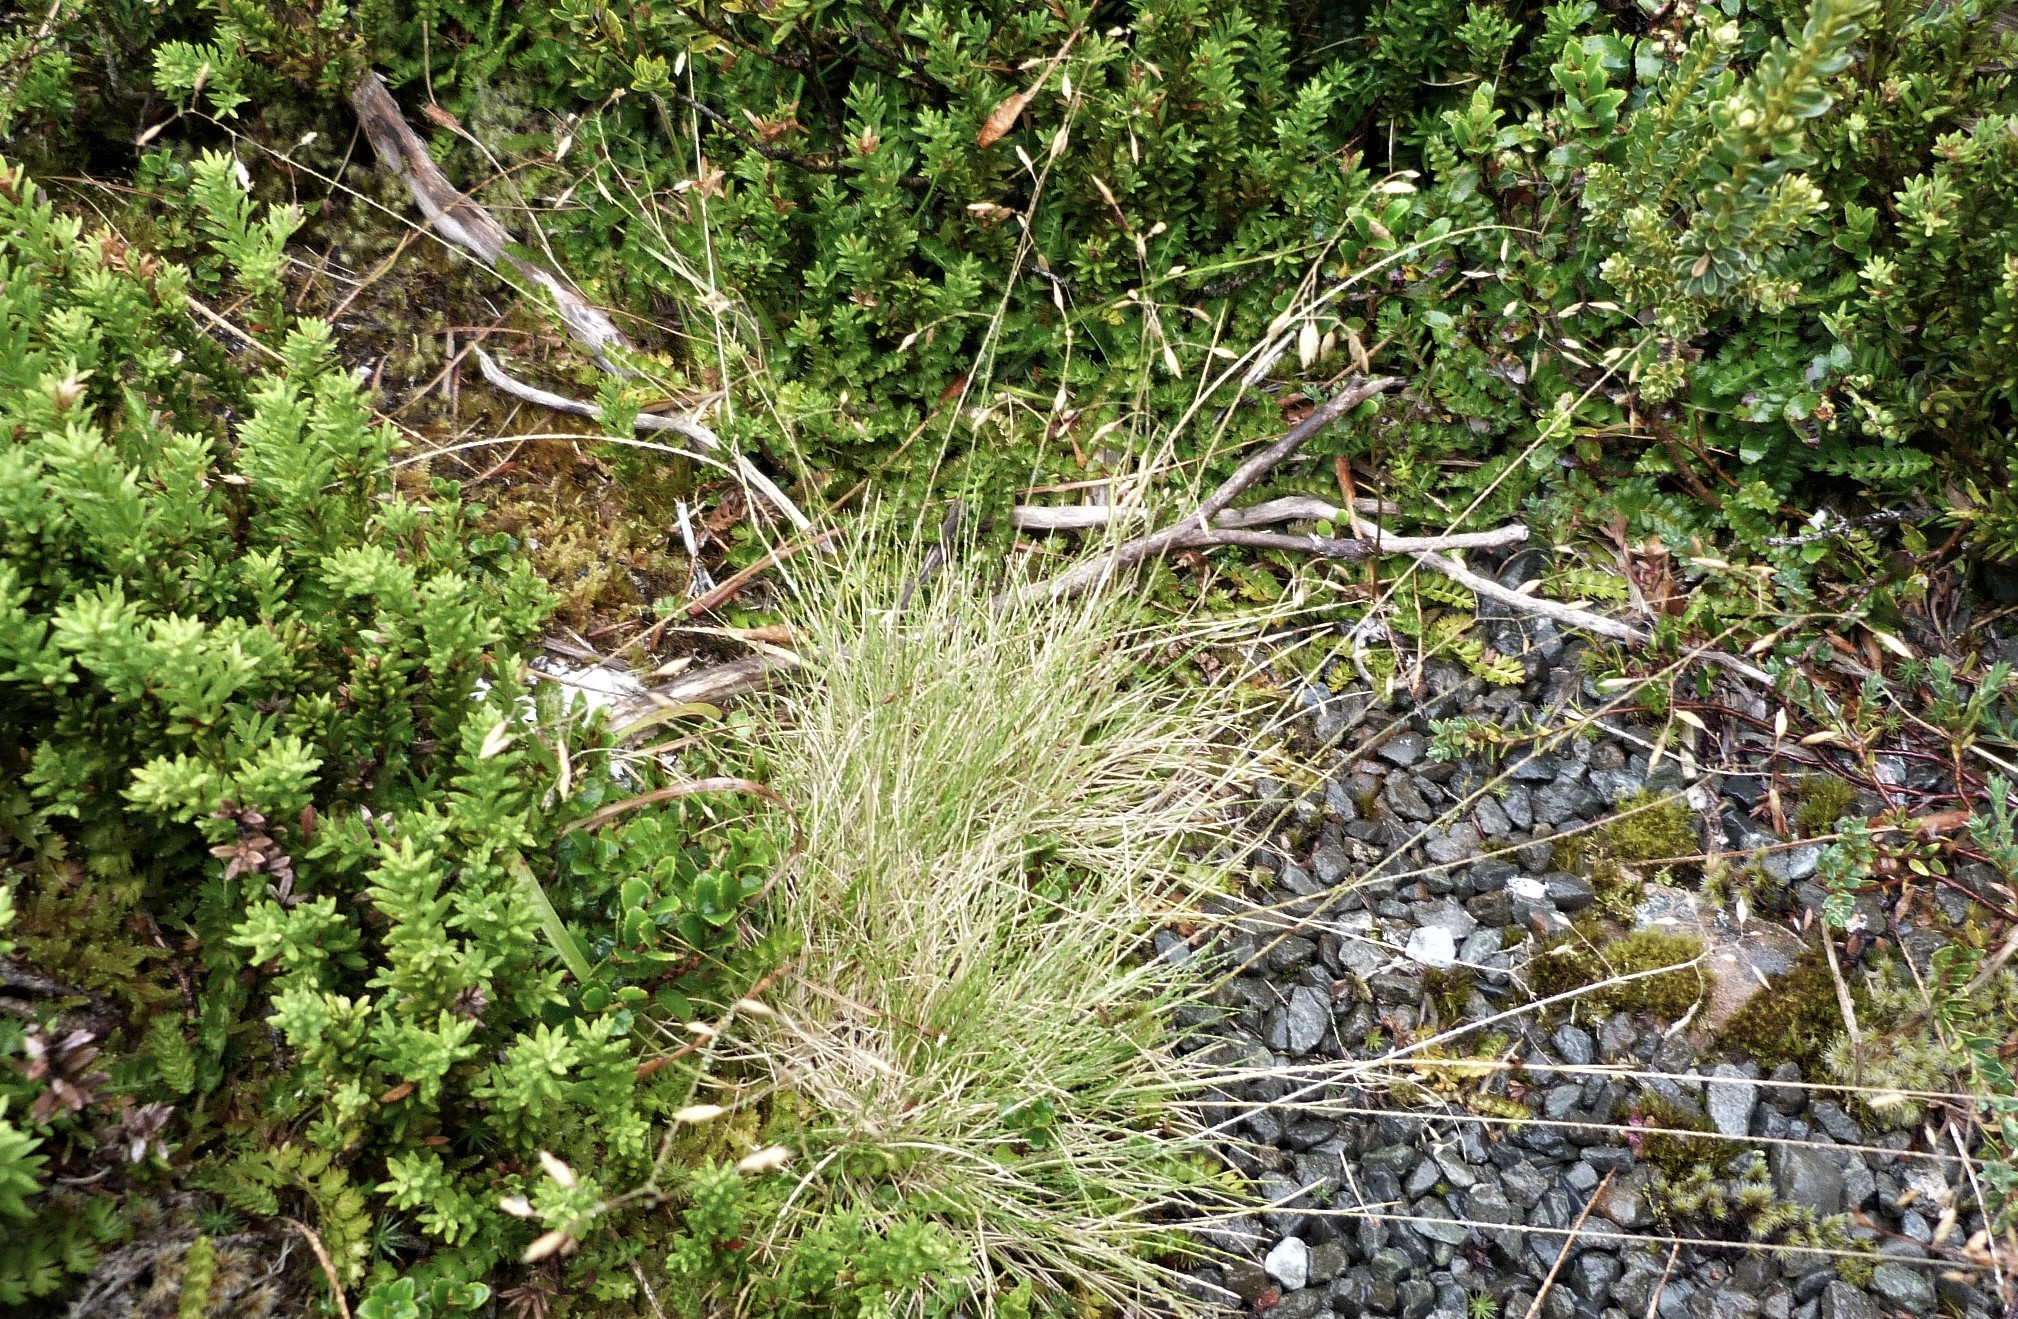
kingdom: Plantae
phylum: Tracheophyta
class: Liliopsida
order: Poales
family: Poaceae
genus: Poa
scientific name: Poa colensoi
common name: Blue tussock
